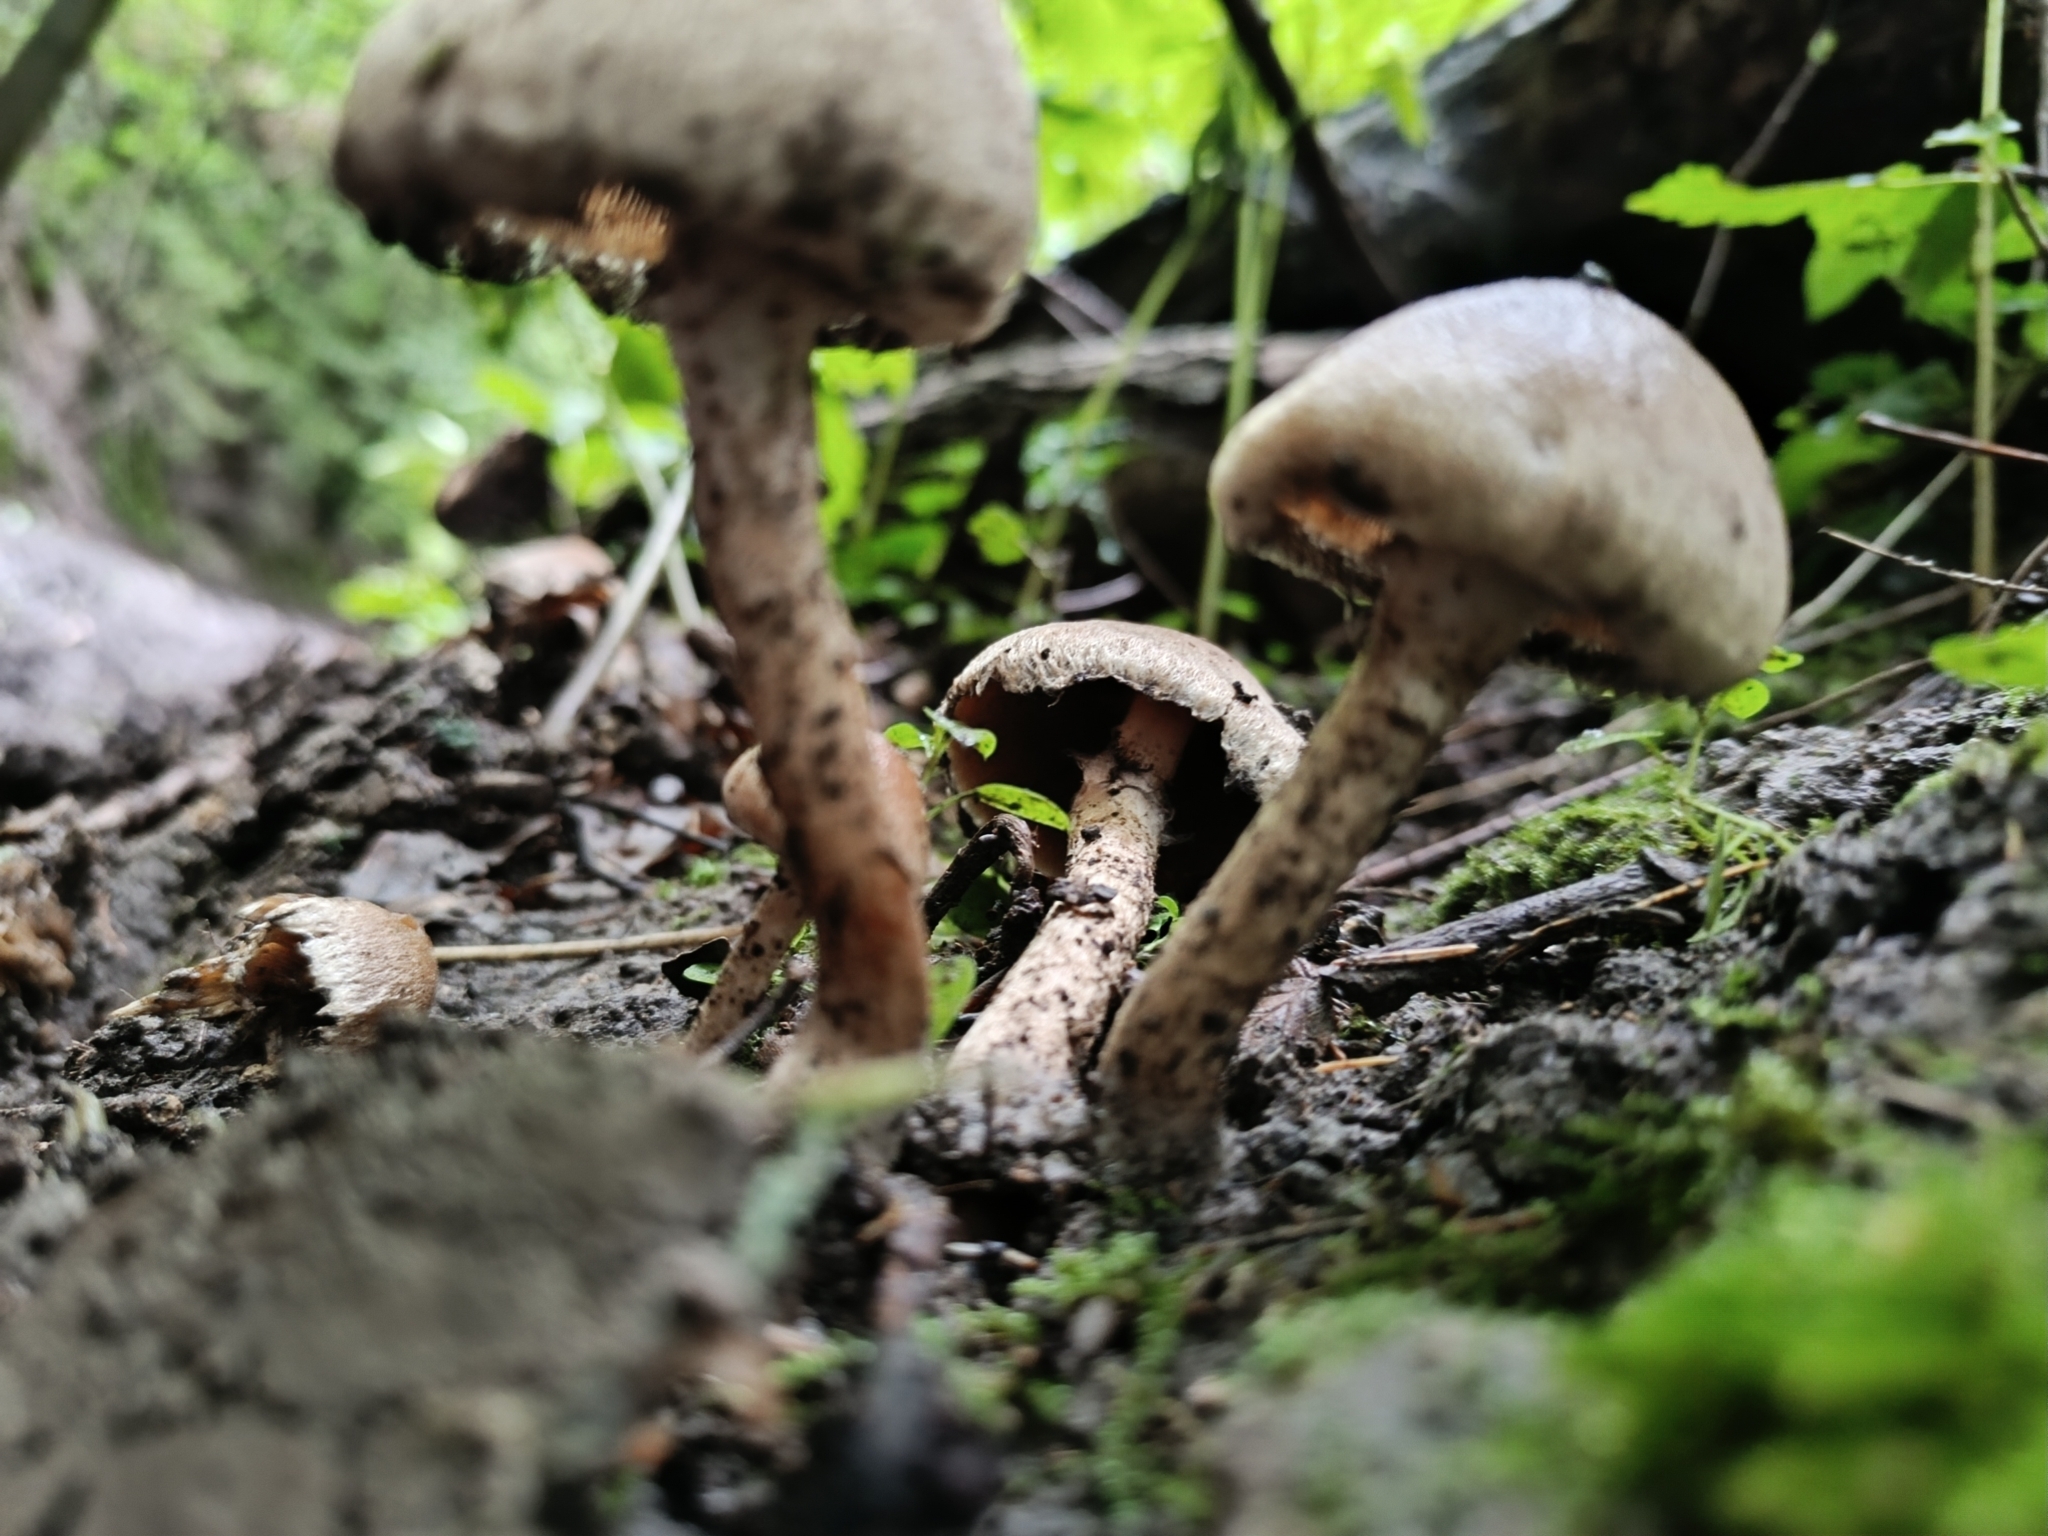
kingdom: Fungi
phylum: Basidiomycota
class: Agaricomycetes
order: Agaricales
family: Psathyrellaceae
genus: Lacrymaria
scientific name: Lacrymaria lacrymabunda
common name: Weeping widow
